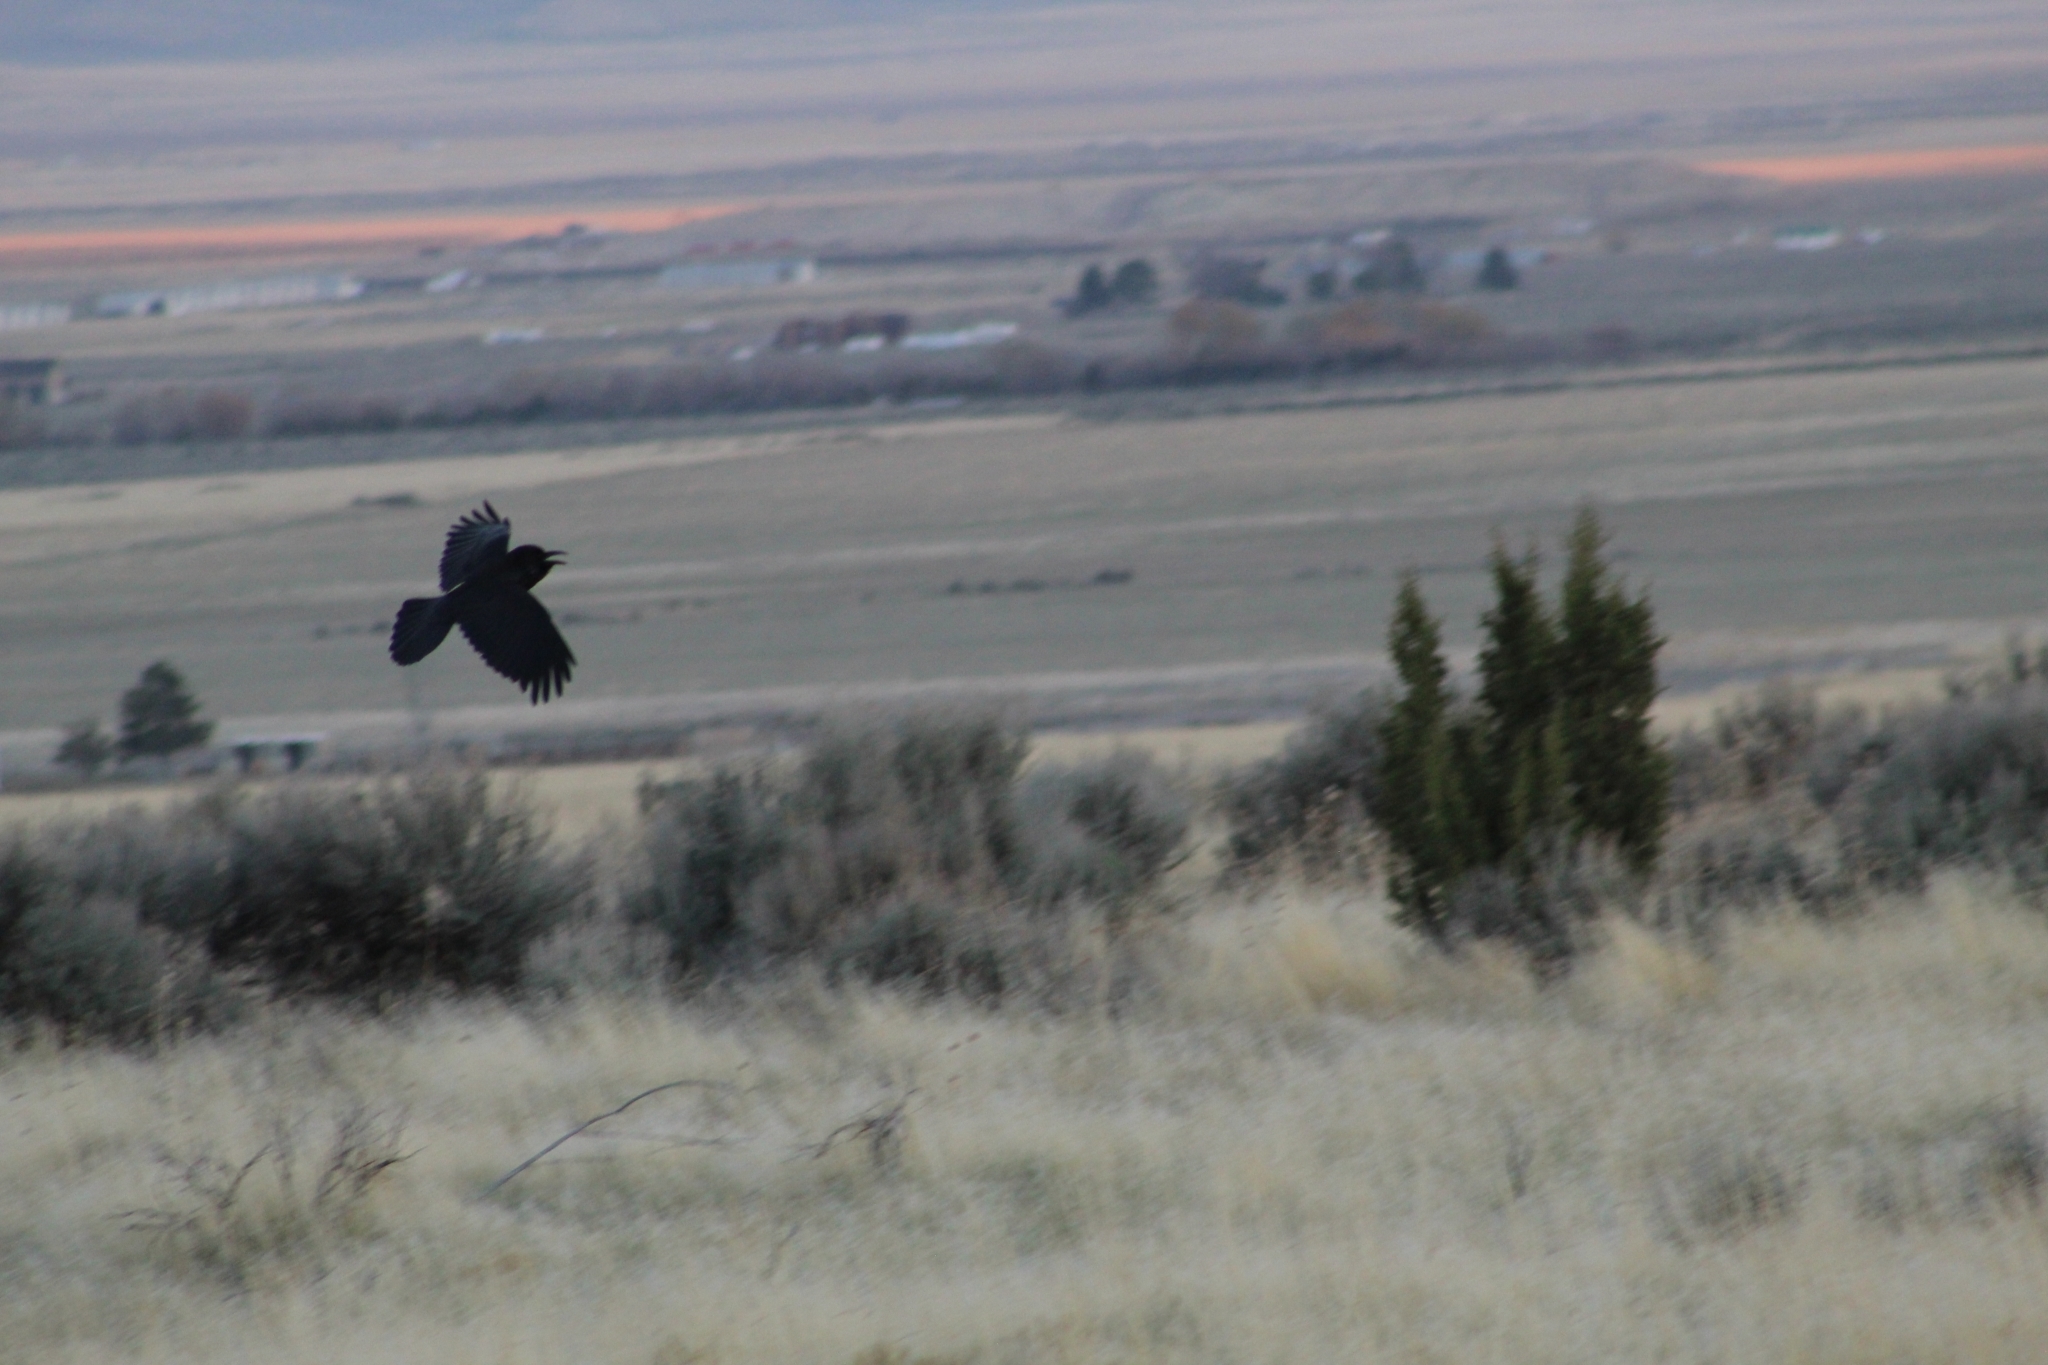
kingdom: Animalia
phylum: Chordata
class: Aves
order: Passeriformes
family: Corvidae
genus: Corvus
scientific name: Corvus corax
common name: Common raven
